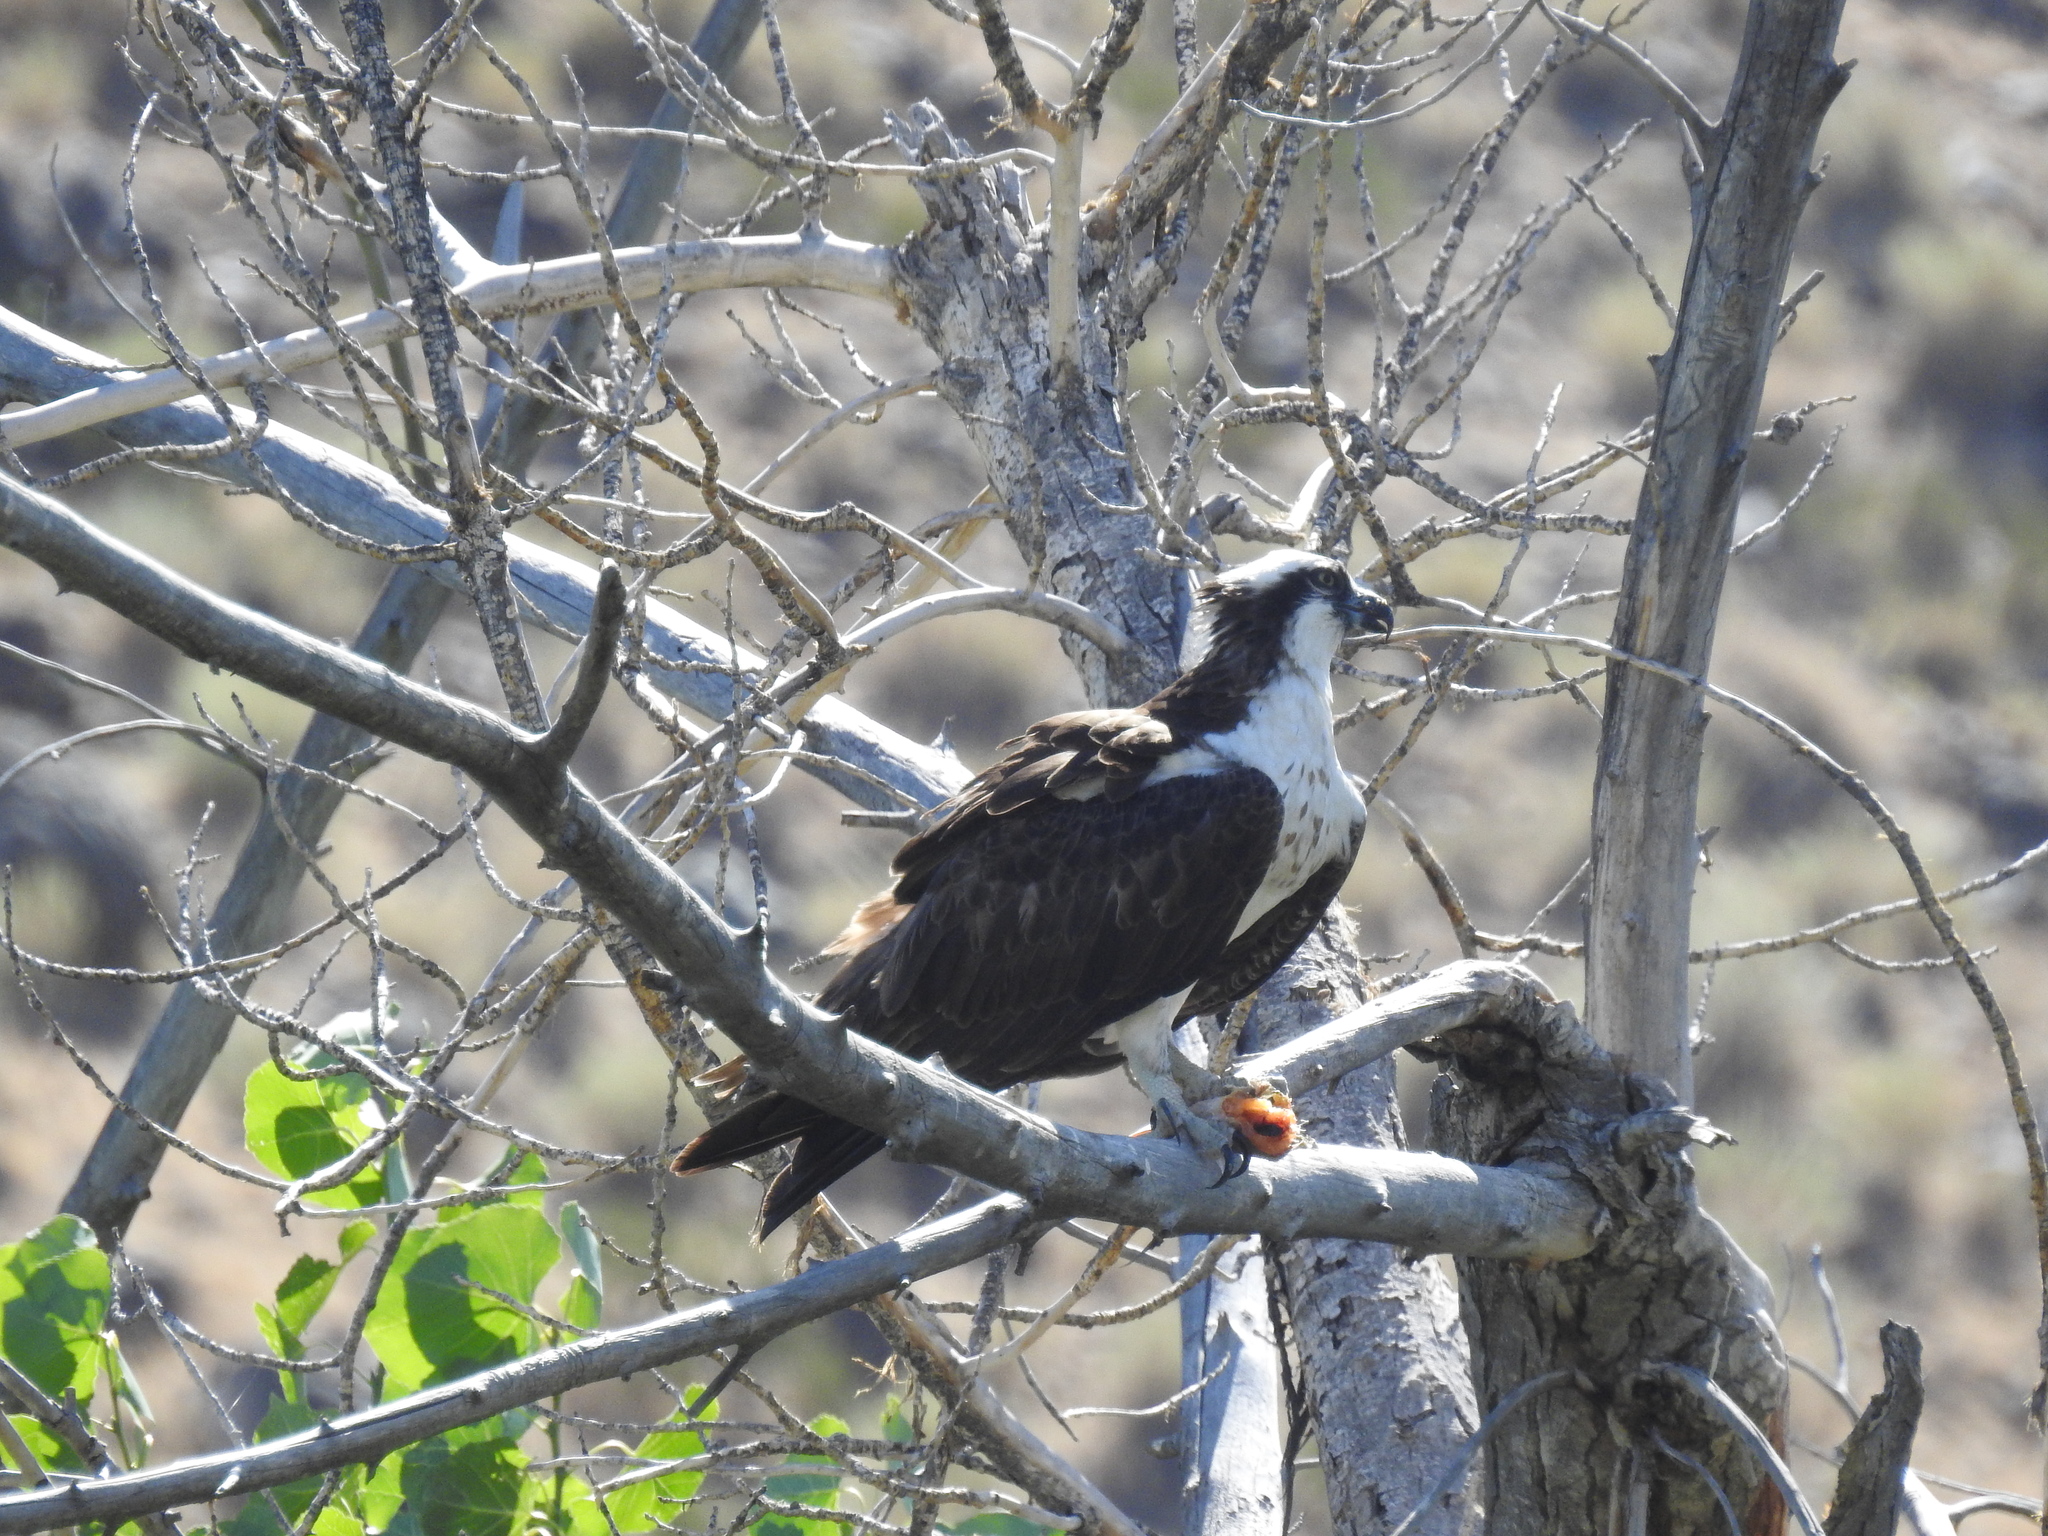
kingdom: Animalia
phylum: Chordata
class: Aves
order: Accipitriformes
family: Pandionidae
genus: Pandion
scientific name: Pandion haliaetus
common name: Osprey
